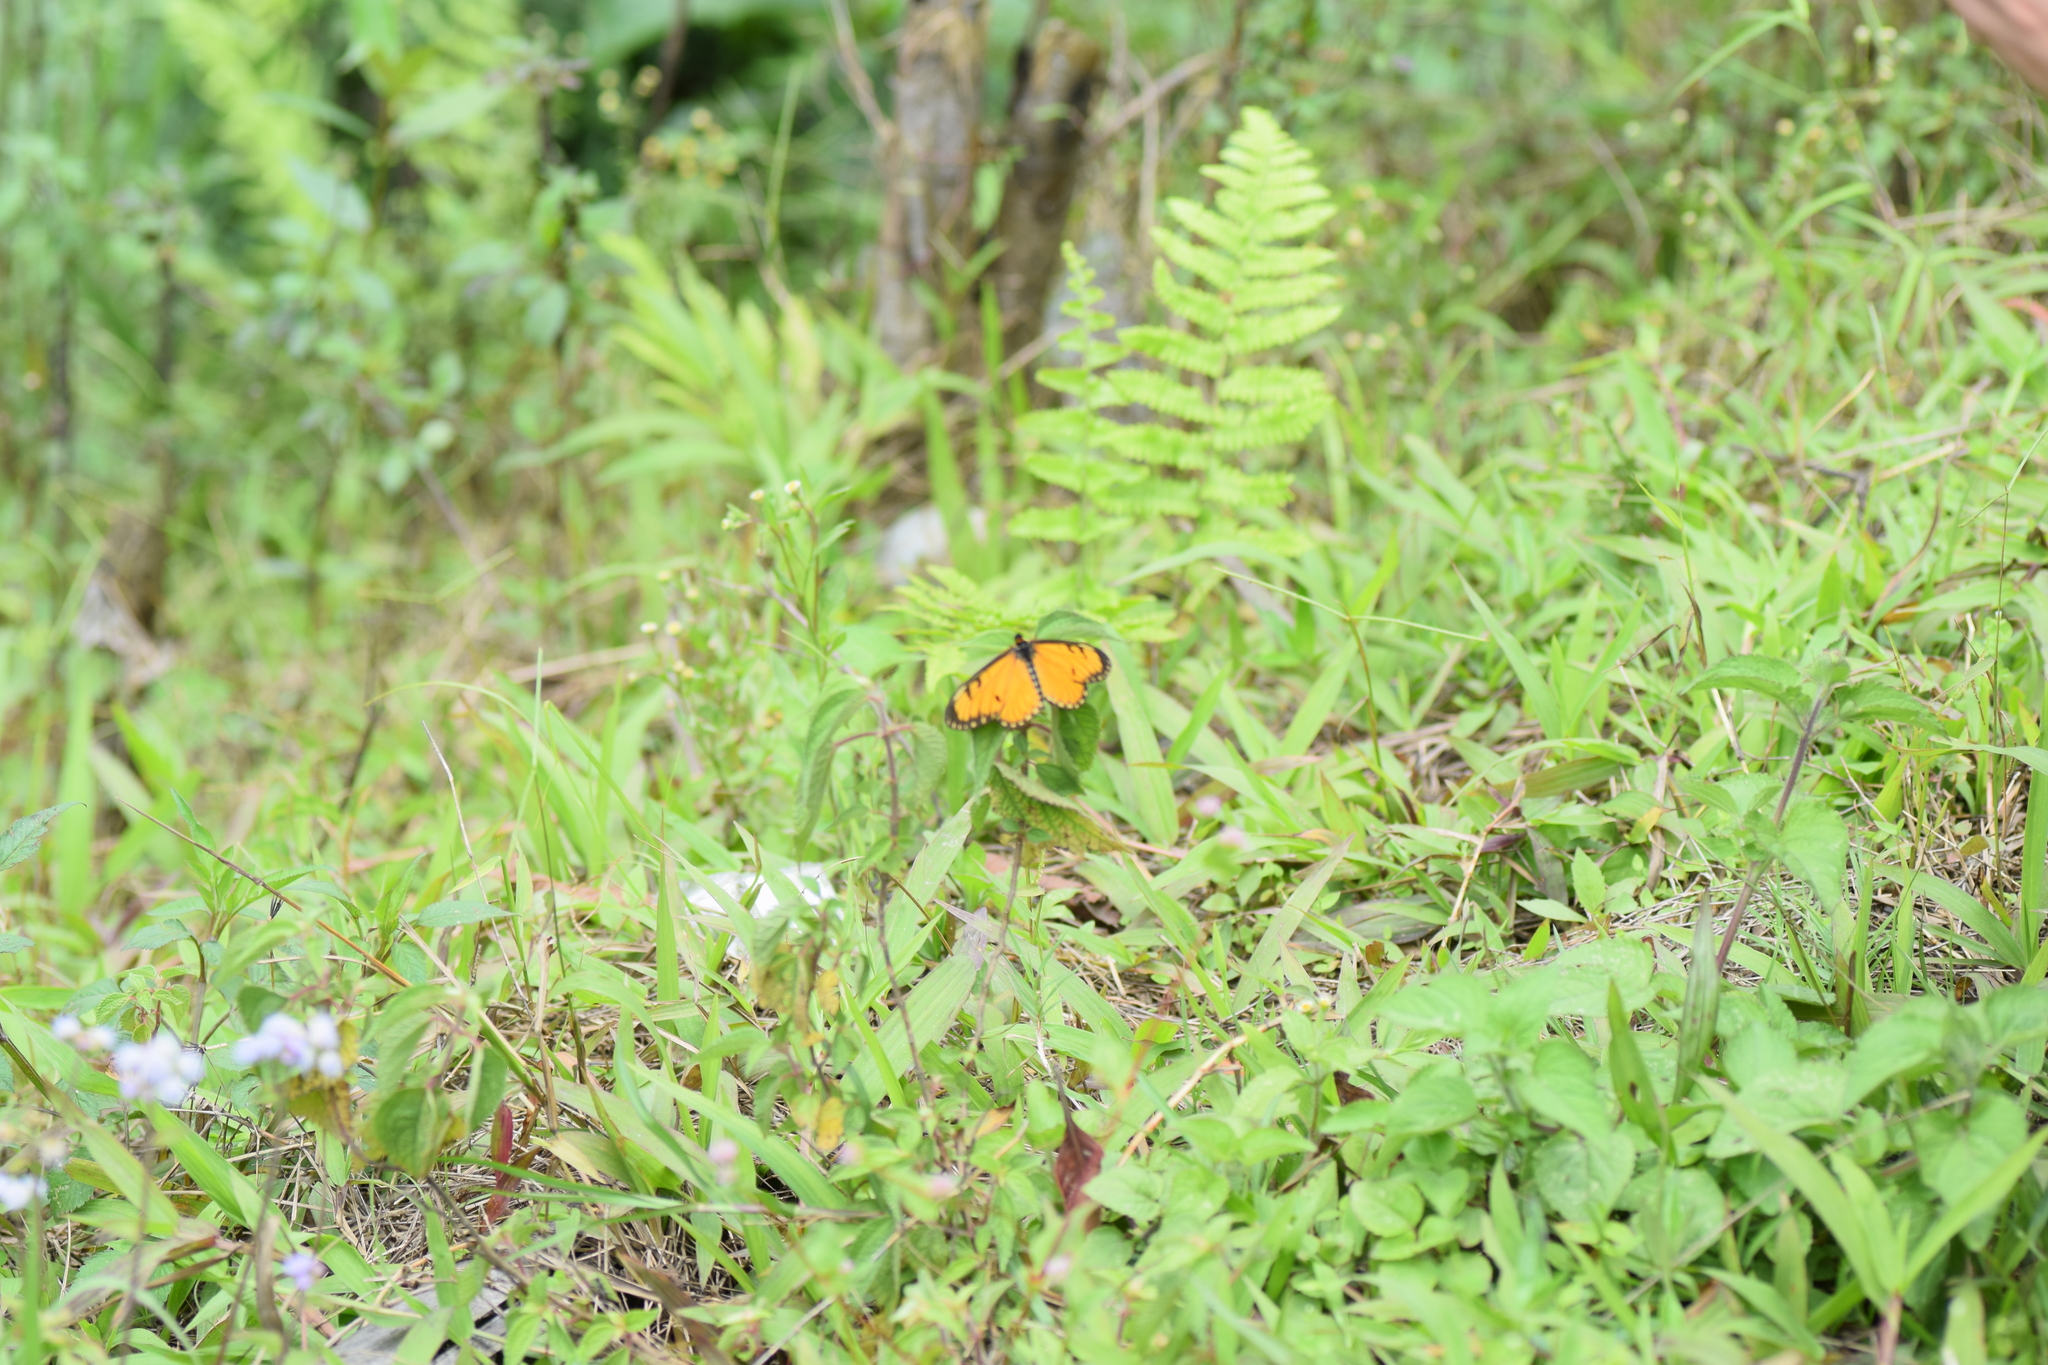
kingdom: Animalia
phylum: Arthropoda
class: Insecta
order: Lepidoptera
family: Nymphalidae
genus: Acraea
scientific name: Acraea Telchinia issoria
